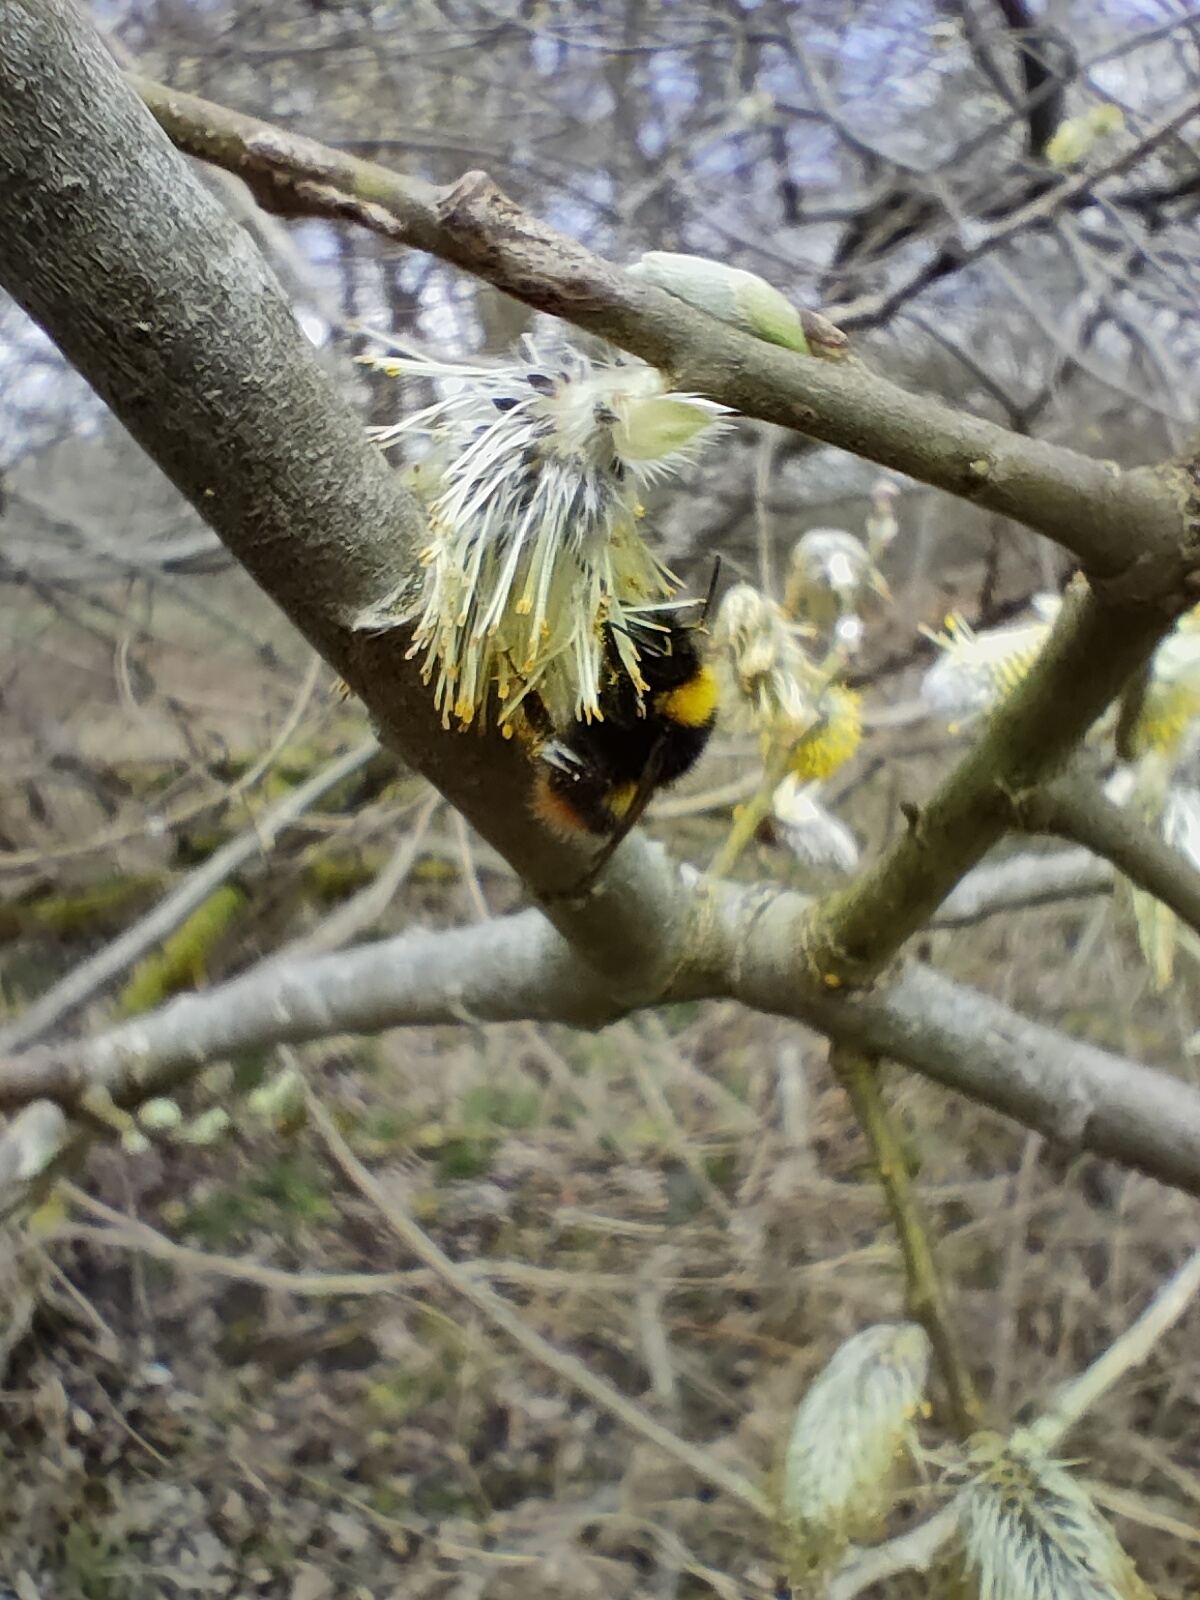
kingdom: Animalia
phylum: Arthropoda
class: Insecta
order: Hymenoptera
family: Apidae
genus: Bombus
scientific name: Bombus pratorum
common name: Early humble-bee
